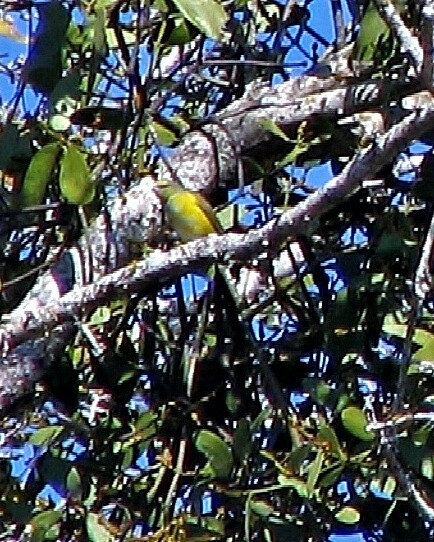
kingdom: Animalia
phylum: Chordata
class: Aves
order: Passeriformes
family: Fringillidae
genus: Euphonia
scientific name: Euphonia chlorotica
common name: Purple-throated euphonia
